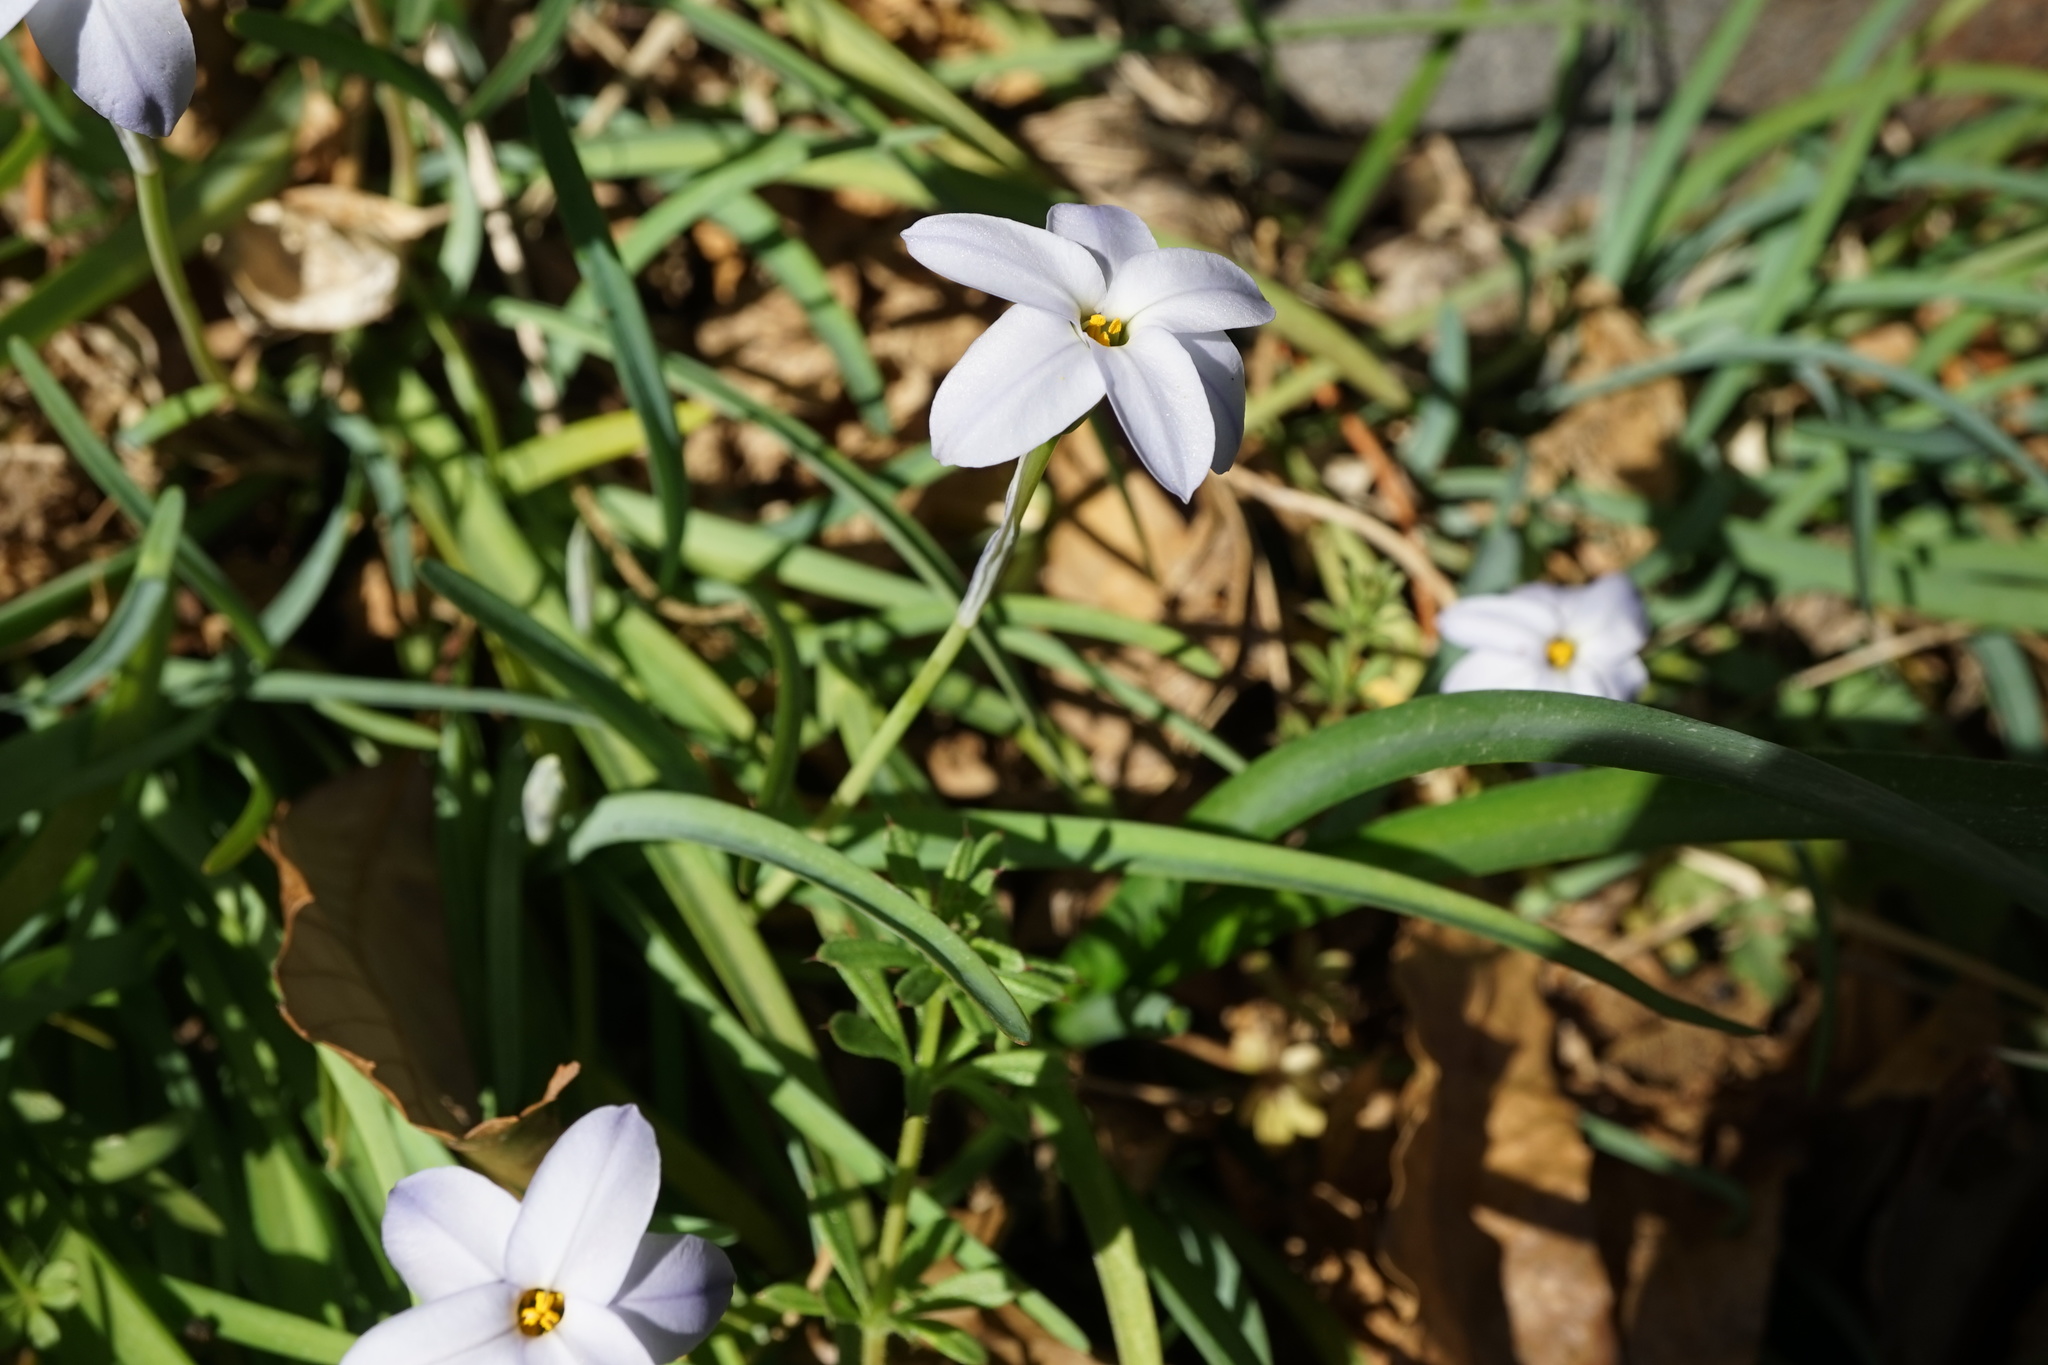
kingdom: Plantae
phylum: Tracheophyta
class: Liliopsida
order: Asparagales
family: Amaryllidaceae
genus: Ipheion
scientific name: Ipheion uniflorum
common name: Spring starflower
